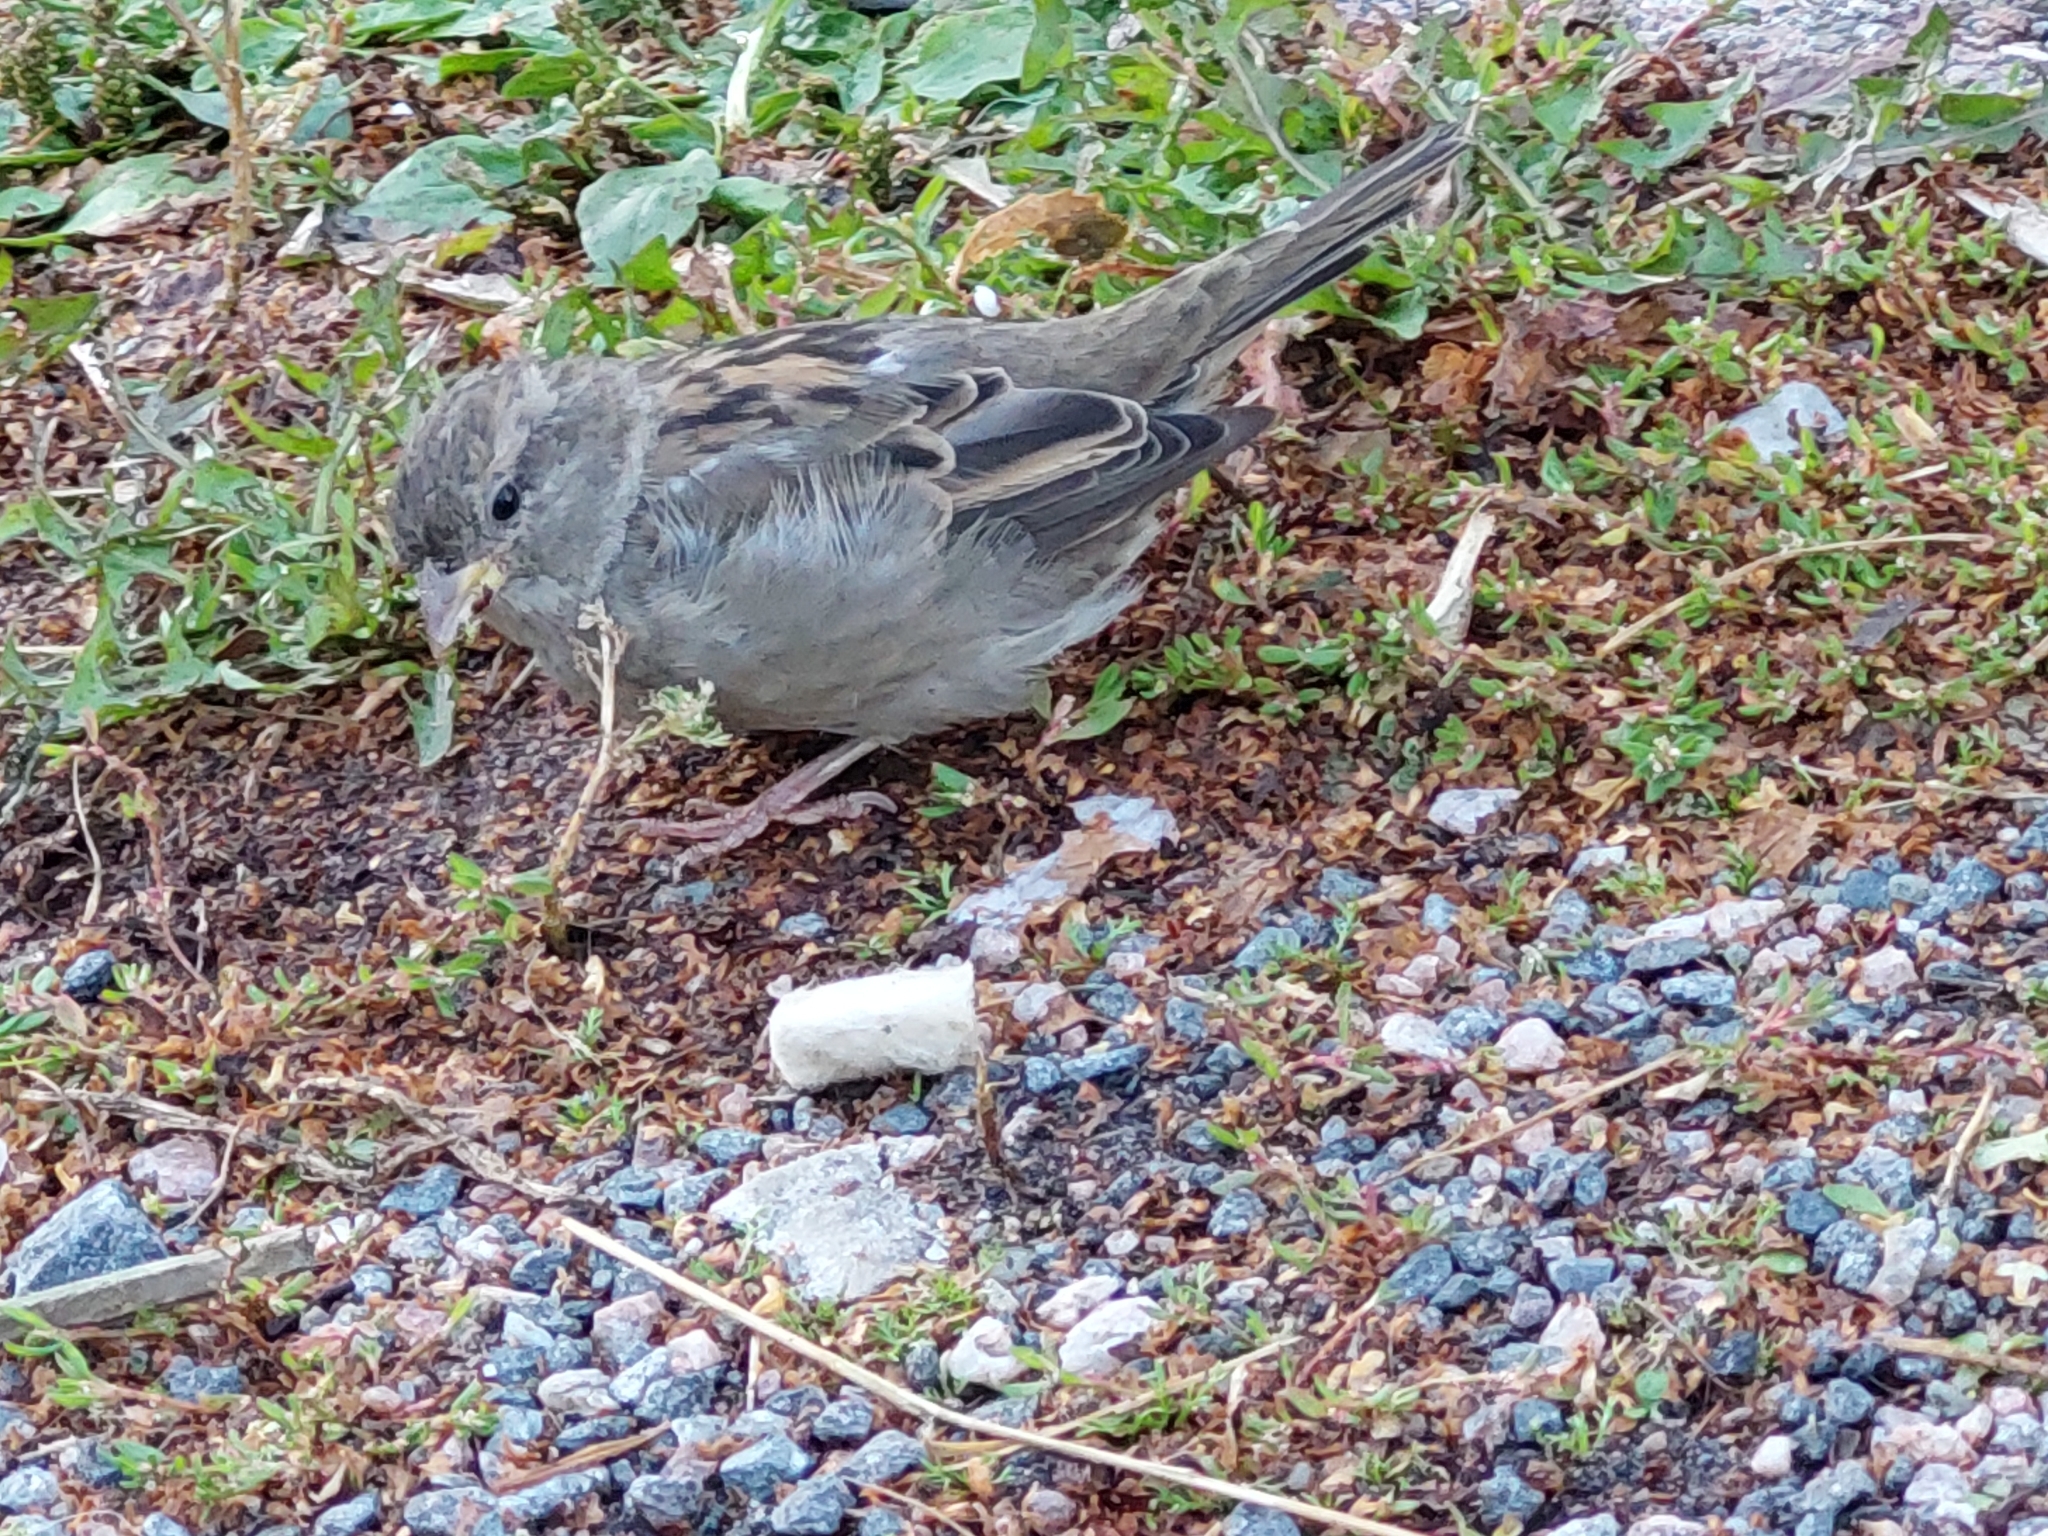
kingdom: Animalia
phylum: Chordata
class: Aves
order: Passeriformes
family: Passeridae
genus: Passer
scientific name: Passer domesticus
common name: House sparrow
